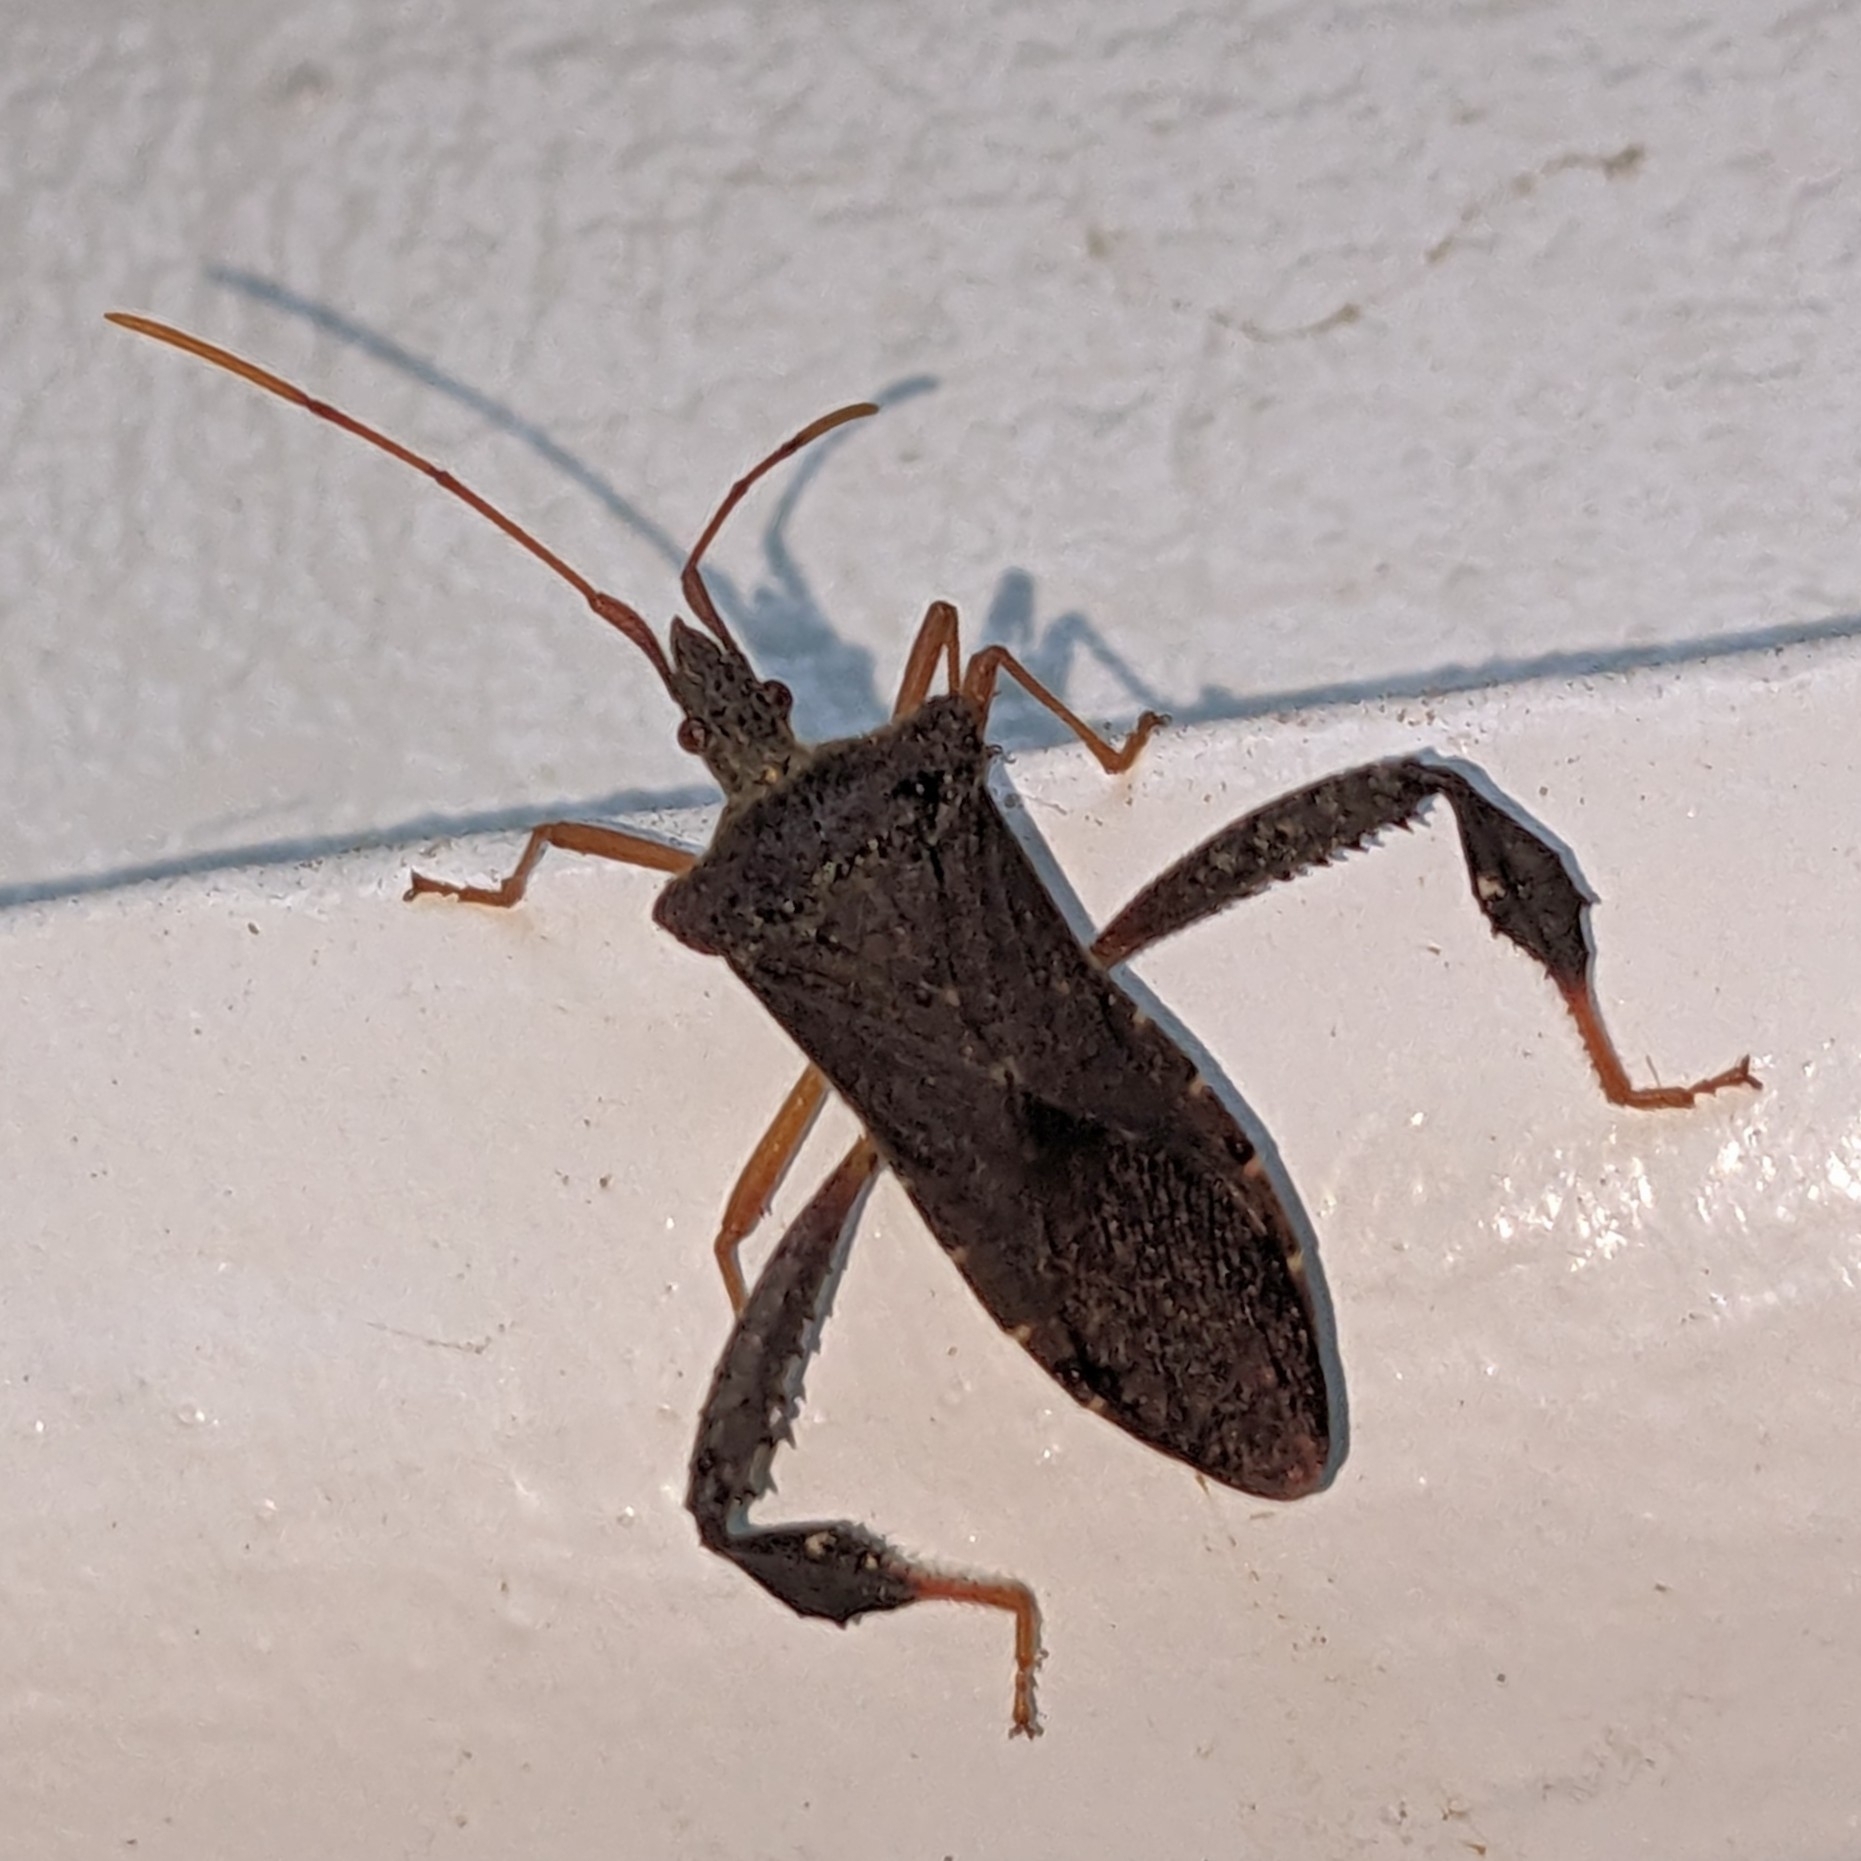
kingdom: Animalia
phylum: Arthropoda
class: Insecta
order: Hemiptera
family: Coreidae
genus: Leptoglossus
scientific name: Leptoglossus fulvicornis
